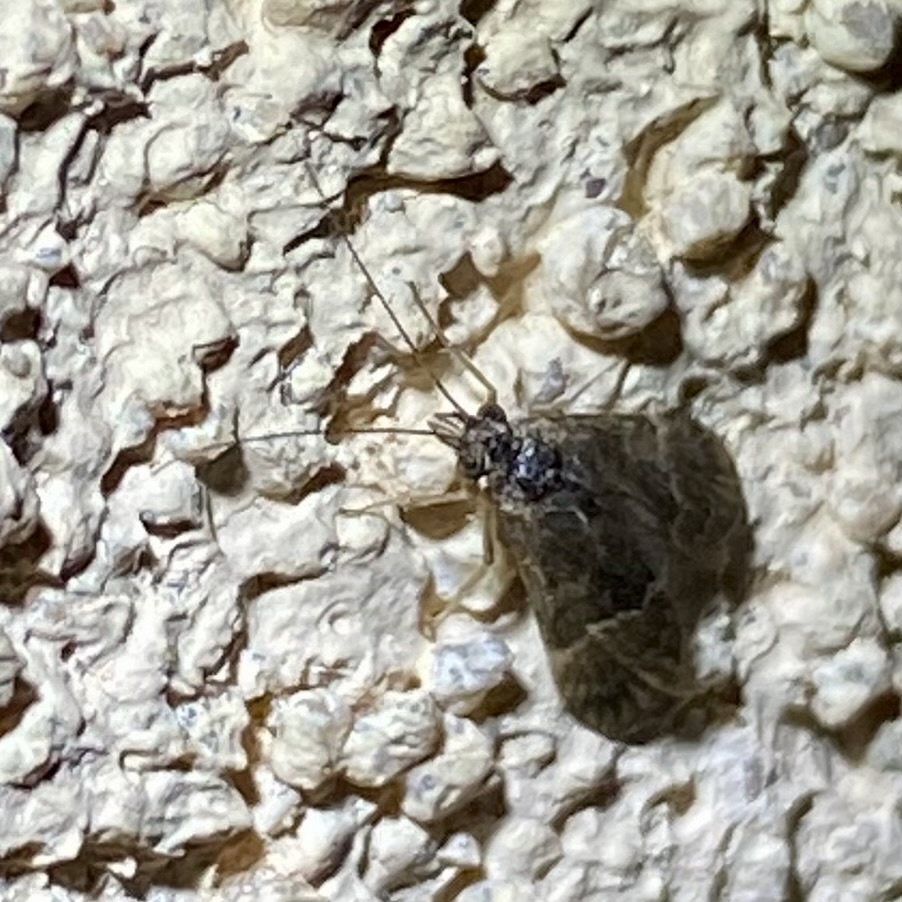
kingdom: Animalia
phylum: Arthropoda
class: Insecta
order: Trichoptera
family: Hydropsychidae
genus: Smicridea
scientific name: Smicridea fasciatella
